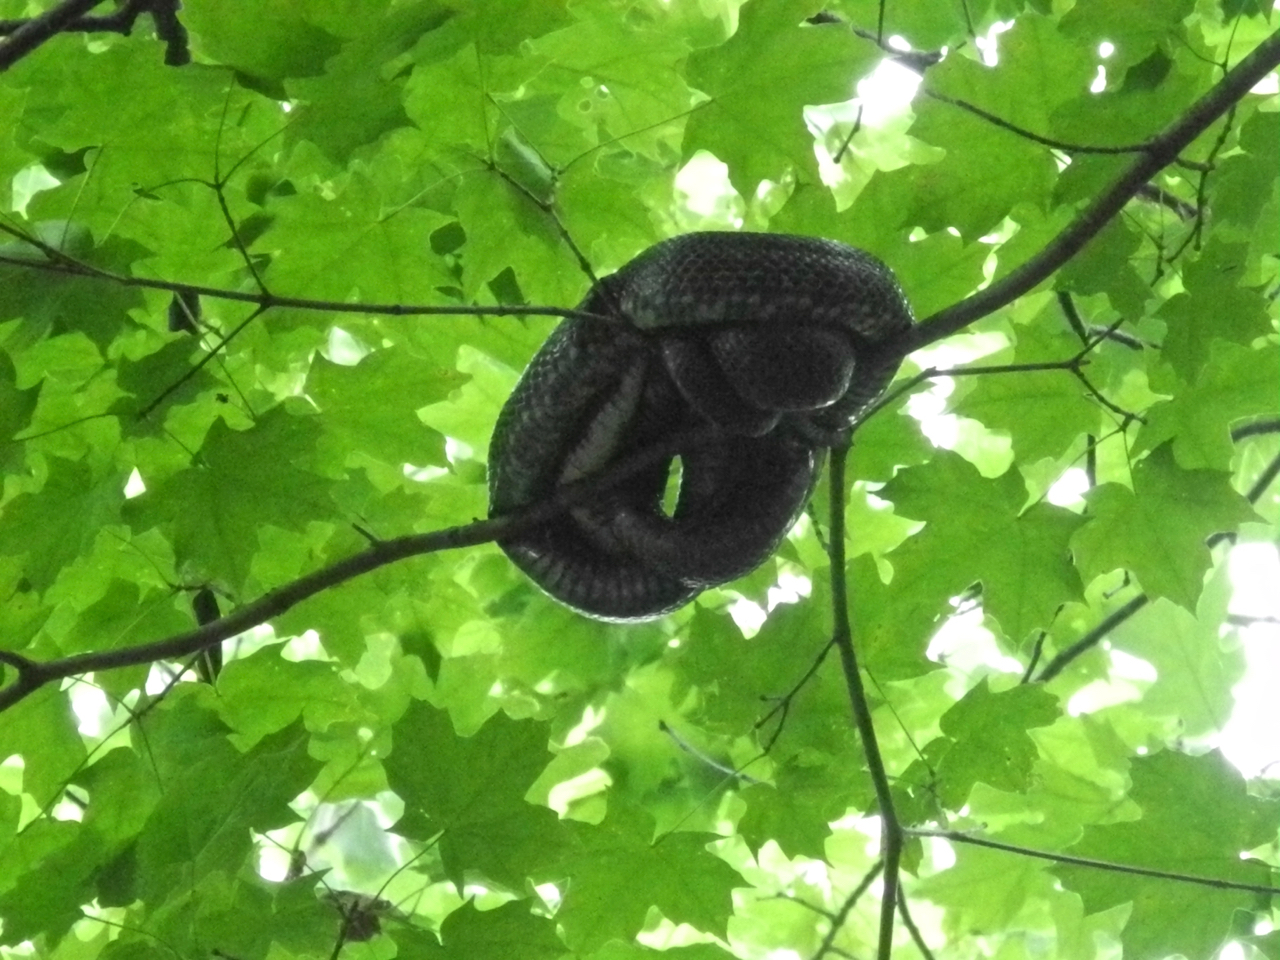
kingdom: Animalia
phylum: Chordata
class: Squamata
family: Colubridae
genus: Pantherophis
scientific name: Pantherophis spiloides
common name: Gray rat snake
